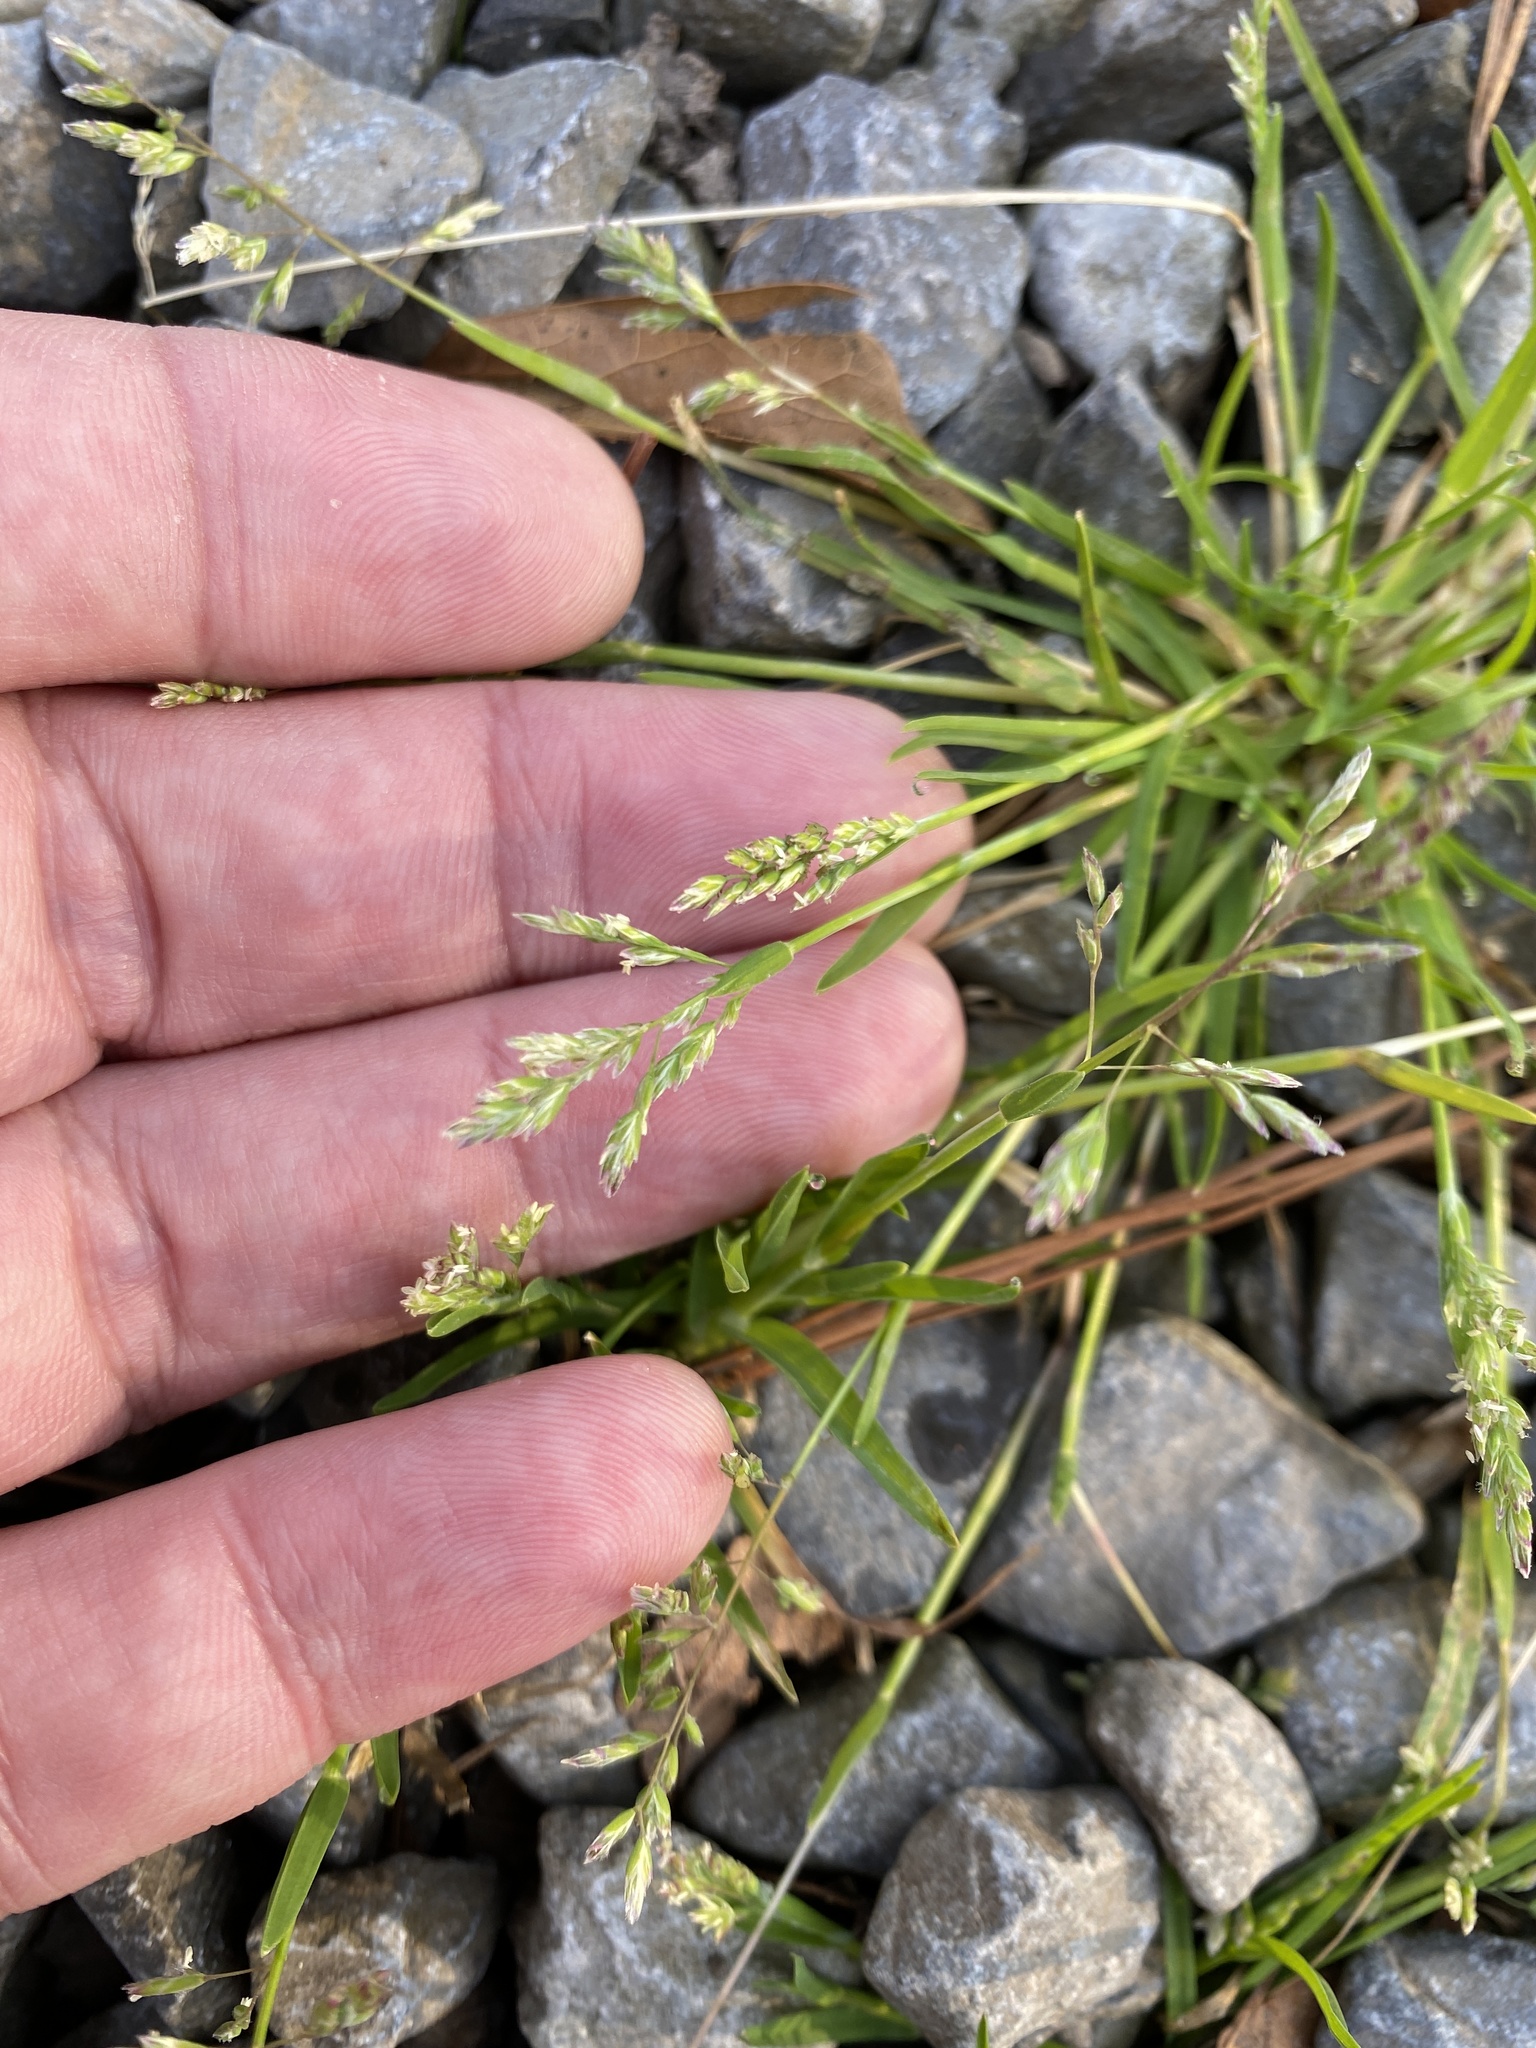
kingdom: Plantae
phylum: Tracheophyta
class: Liliopsida
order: Poales
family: Poaceae
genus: Poa
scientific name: Poa annua
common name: Annual bluegrass
